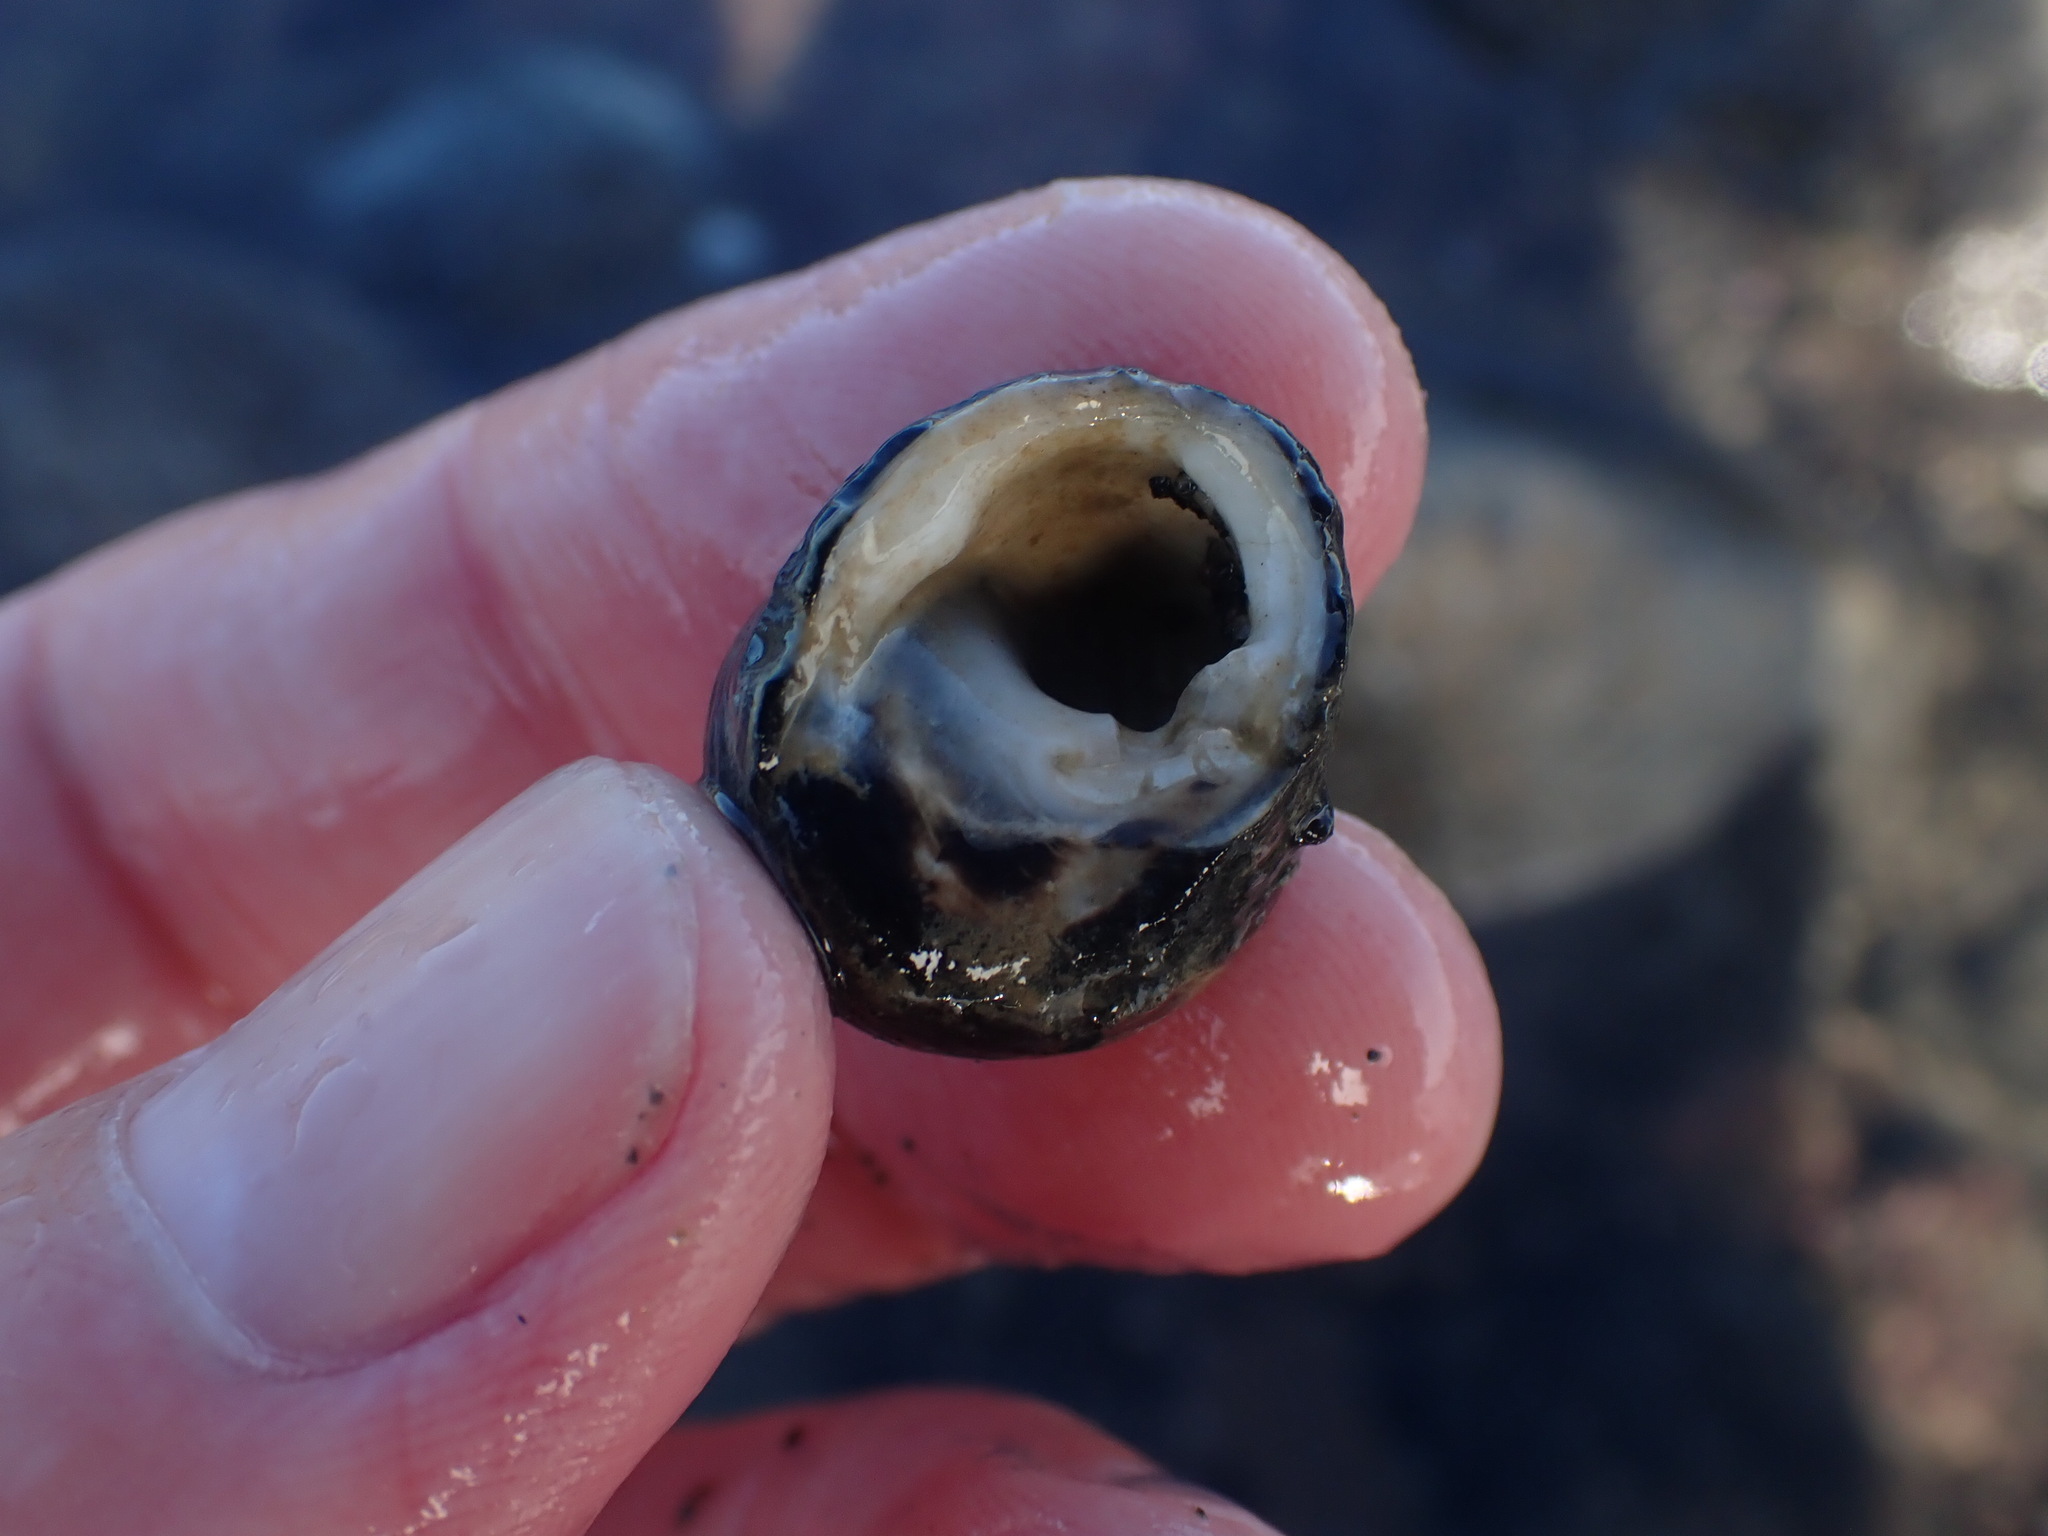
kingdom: Animalia
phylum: Mollusca
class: Gastropoda
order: Trochida
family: Trochidae
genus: Diloma
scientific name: Diloma zelandicum
